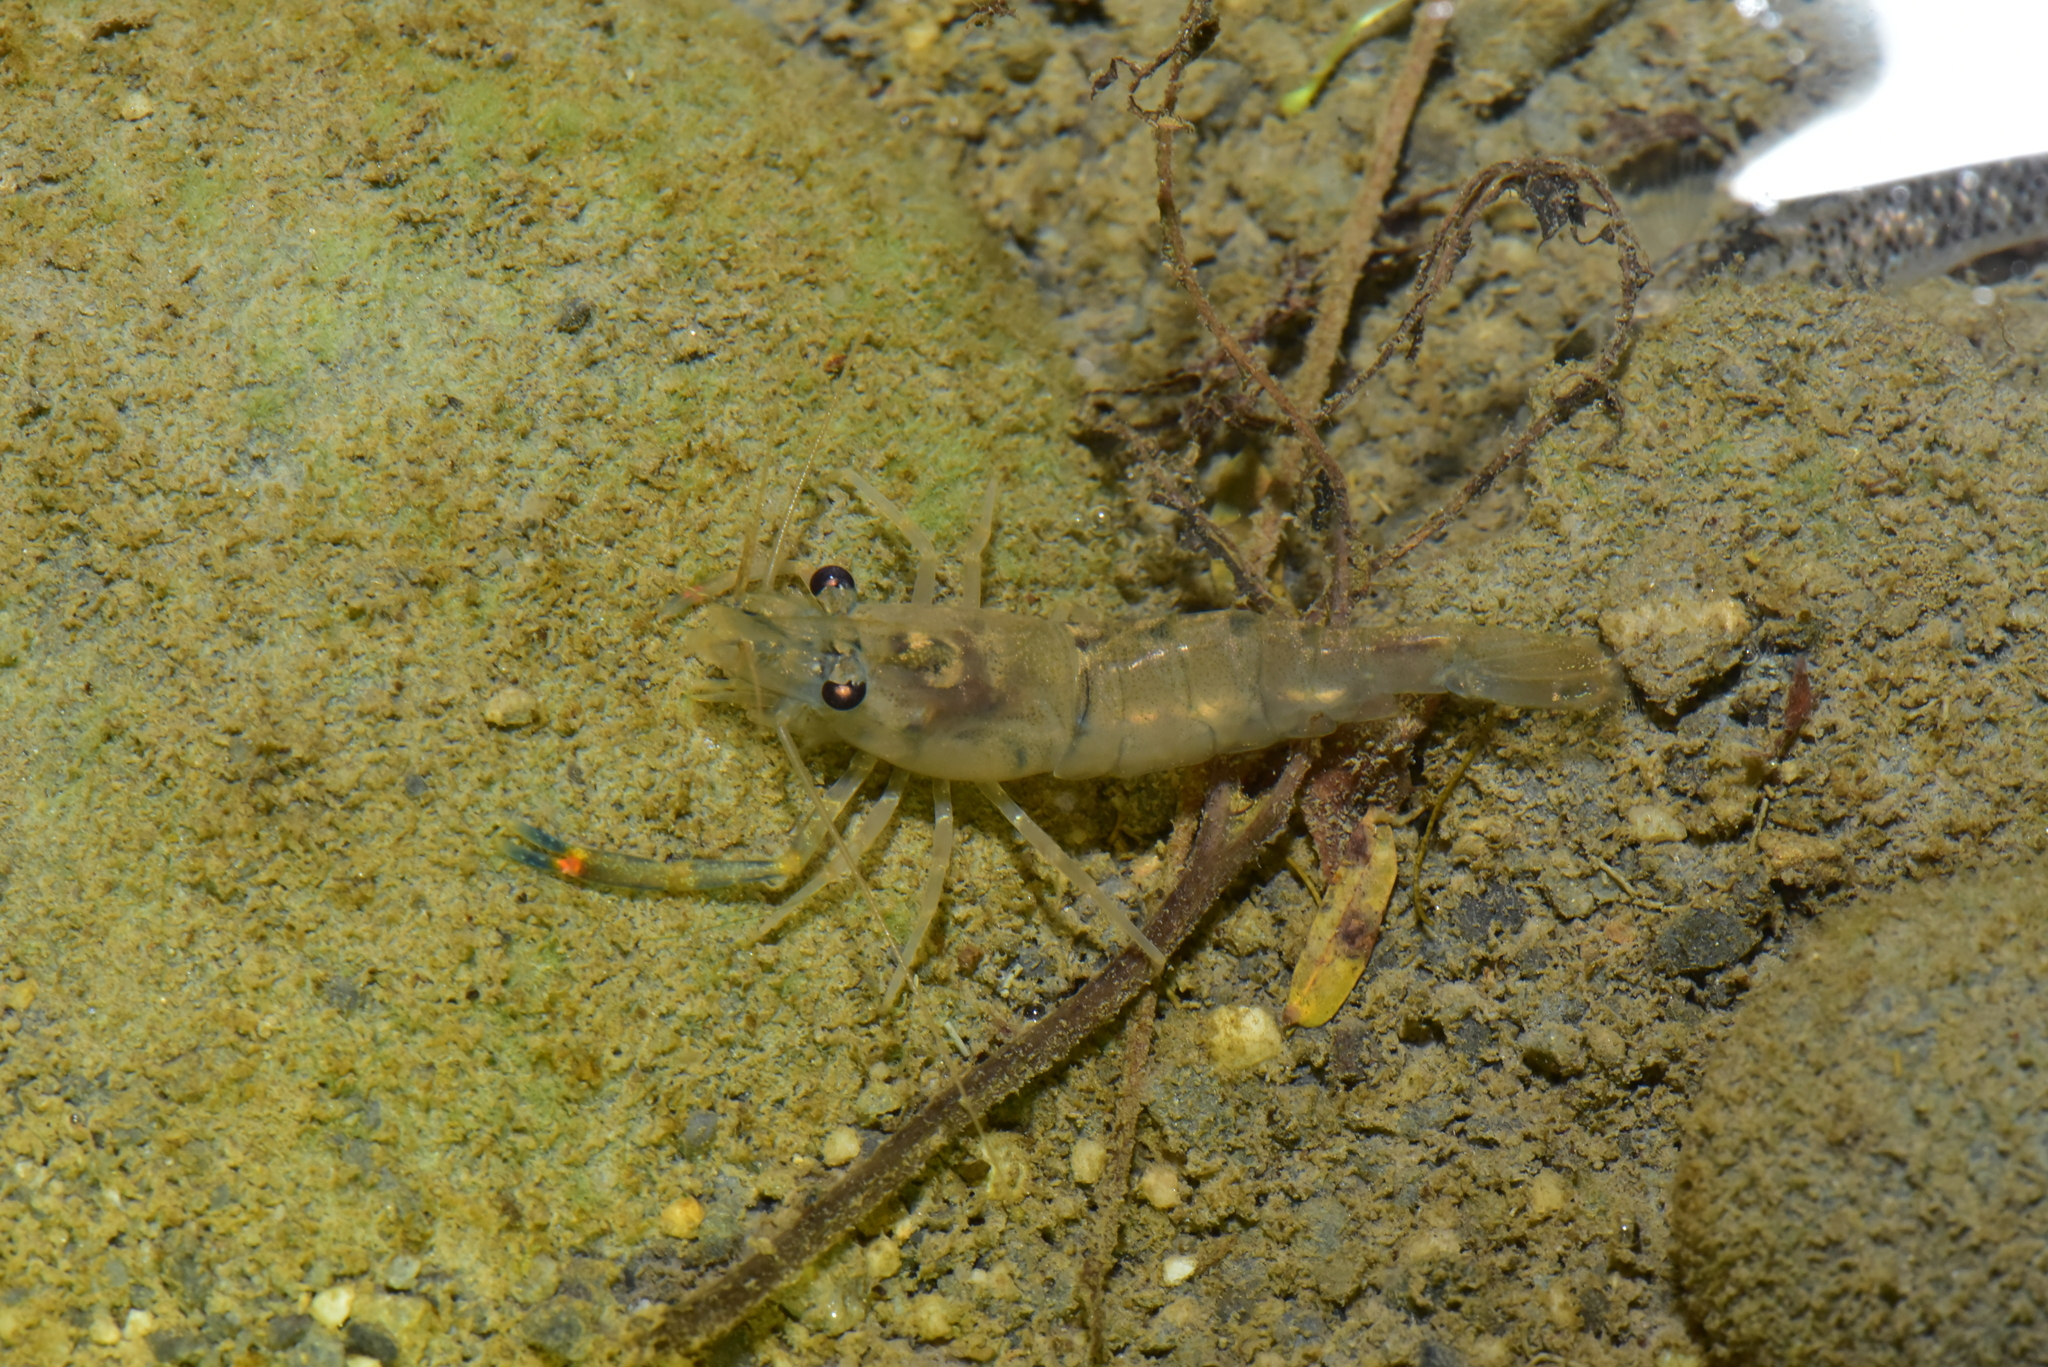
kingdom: Animalia
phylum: Arthropoda
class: Malacostraca
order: Decapoda
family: Palaemonidae
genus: Macrobrachium
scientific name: Macrobrachium asperulum
